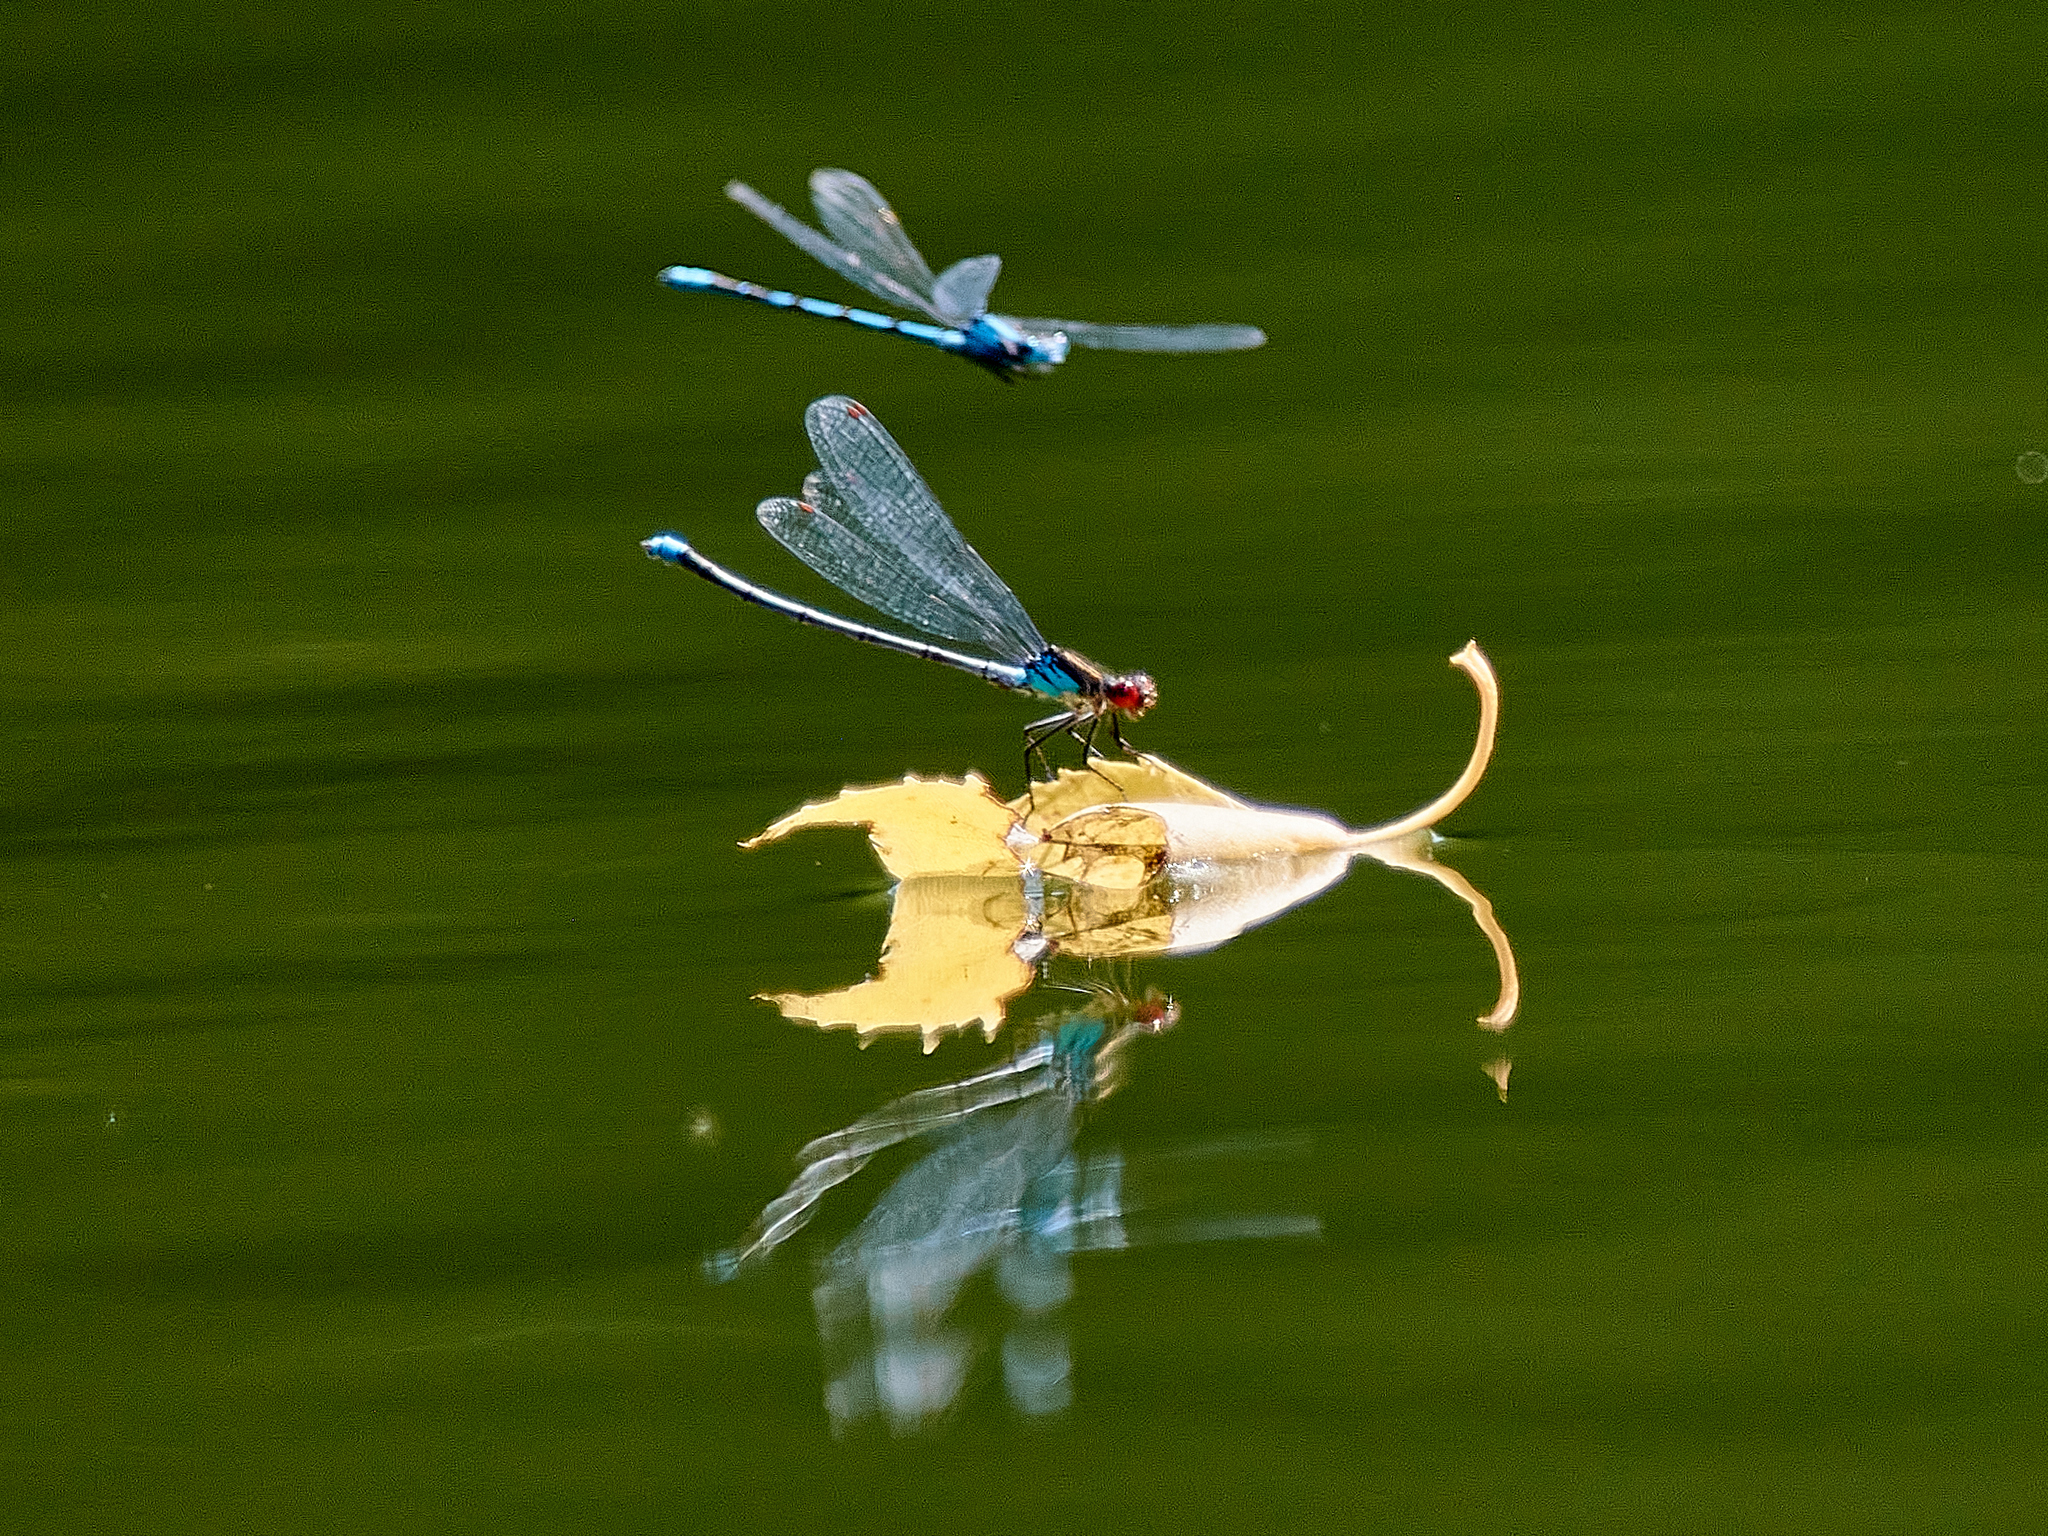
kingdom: Animalia
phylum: Arthropoda
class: Insecta
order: Odonata
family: Coenagrionidae
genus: Enallagma
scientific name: Enallagma cyathigerum
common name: Common blue damselfly
